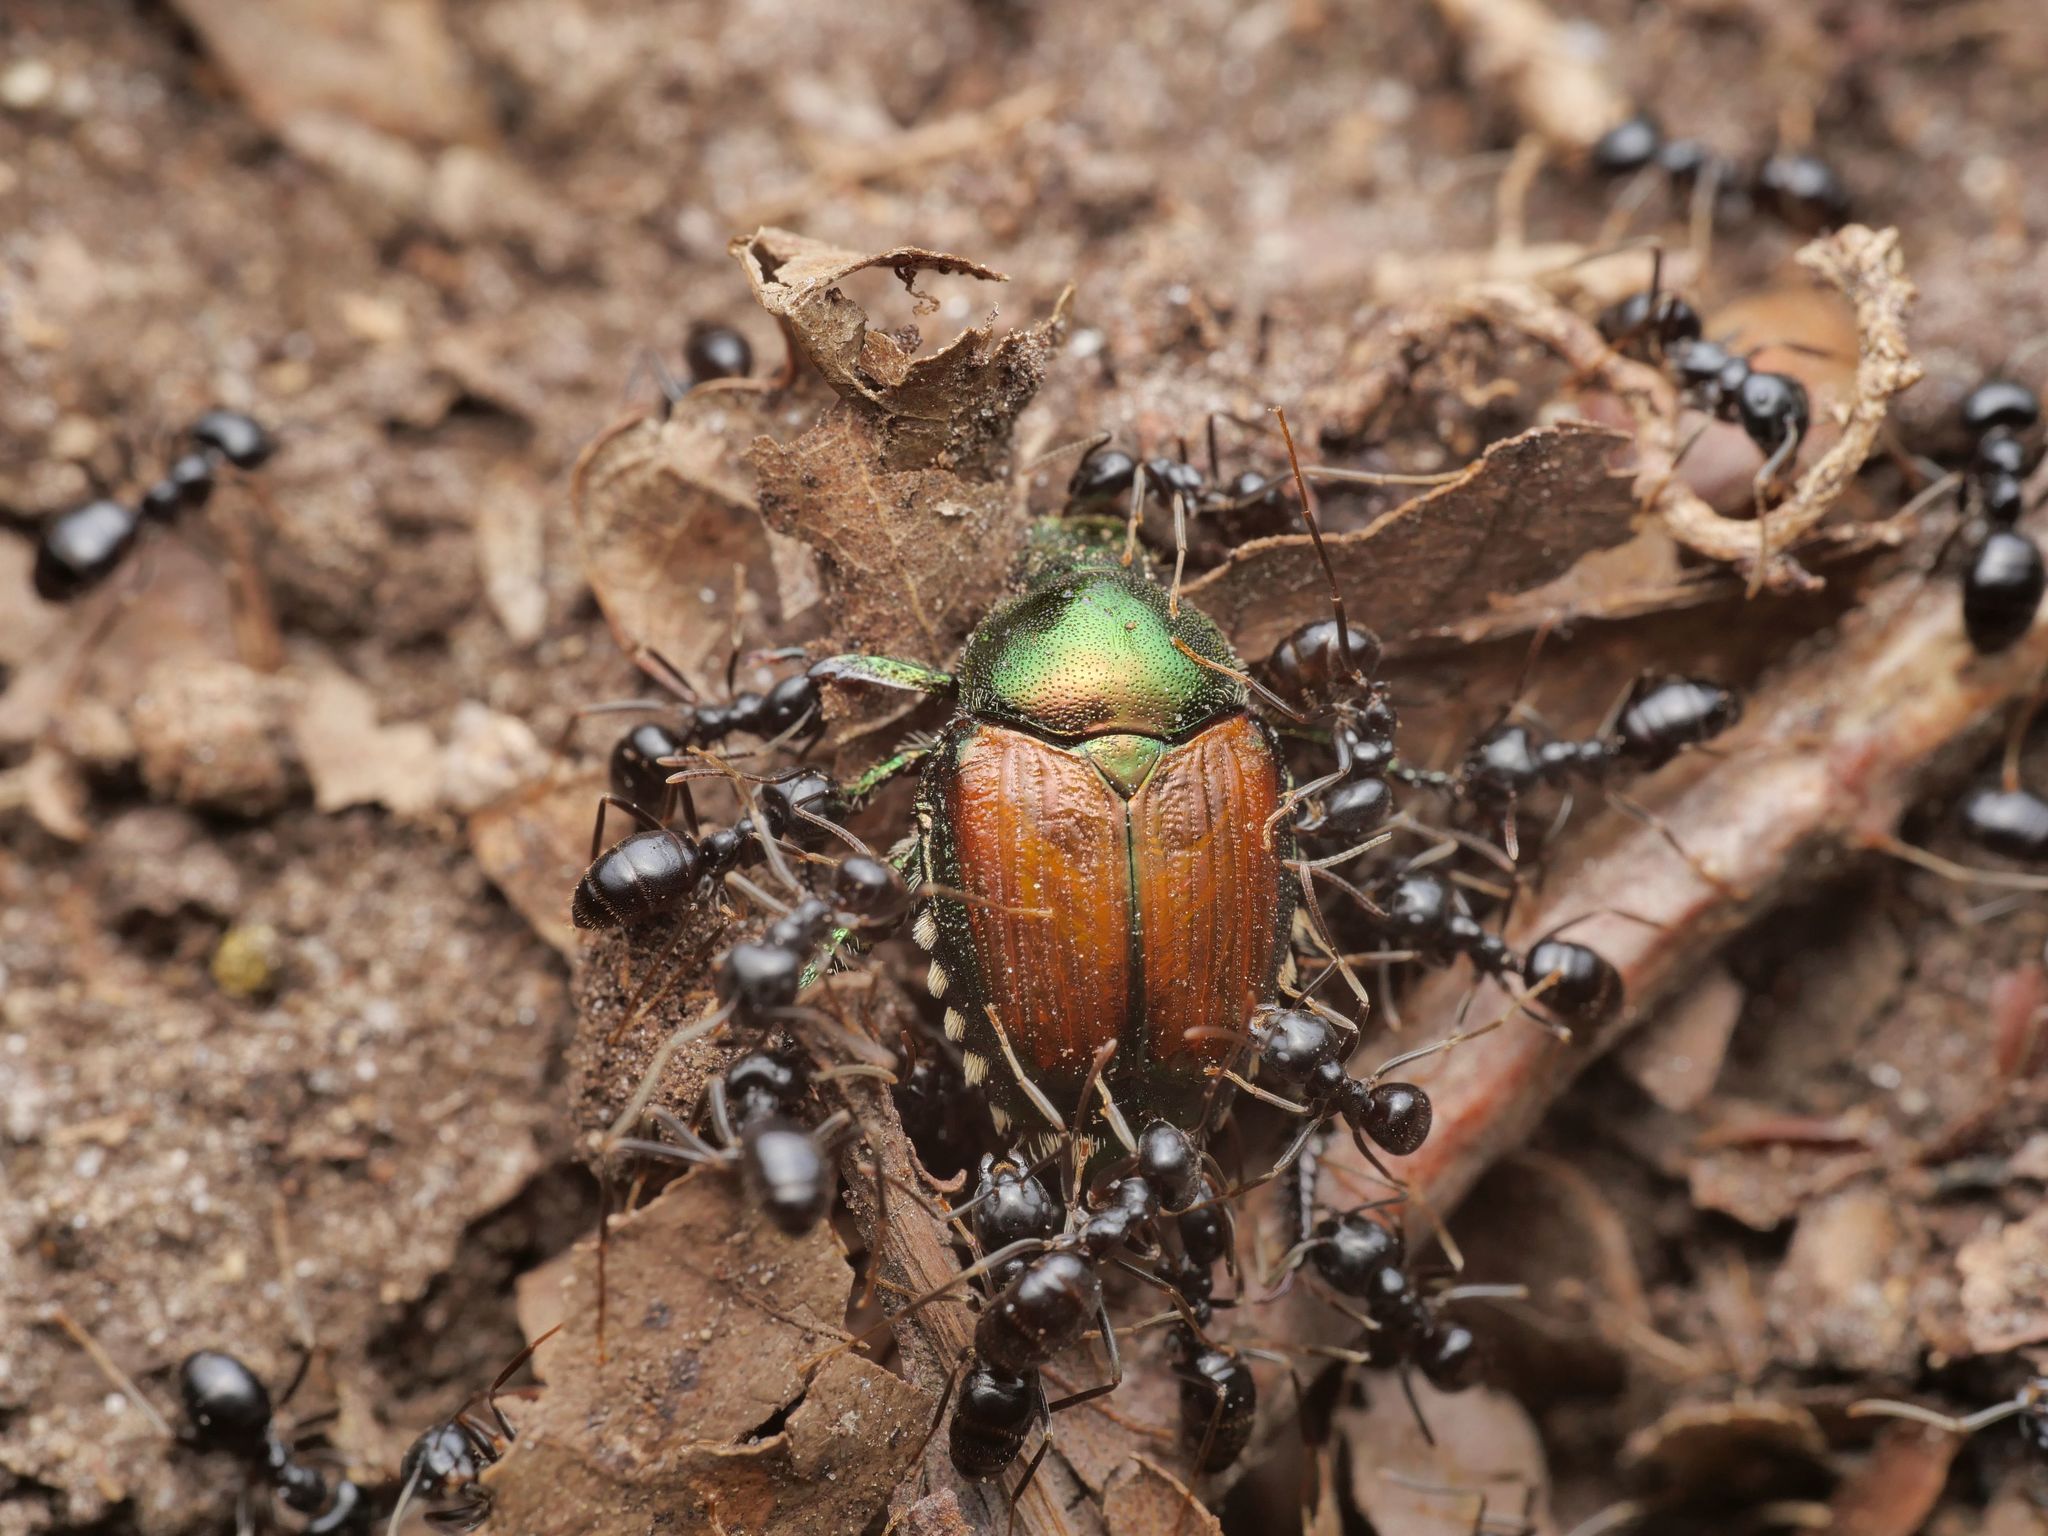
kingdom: Animalia
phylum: Arthropoda
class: Insecta
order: Coleoptera
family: Scarabaeidae
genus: Popillia
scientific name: Popillia japonica
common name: Japanese beetle
